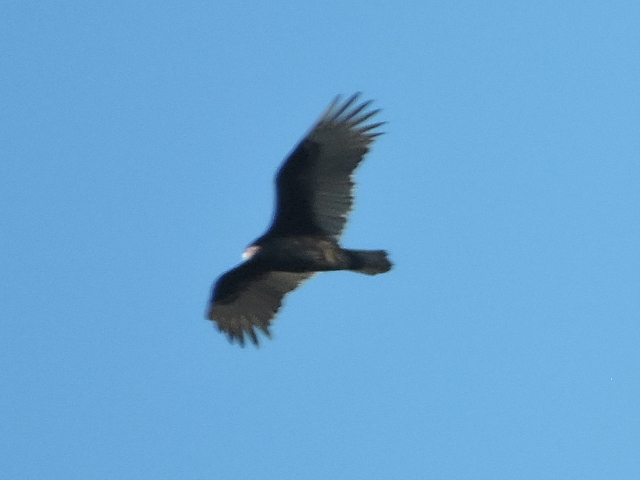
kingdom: Animalia
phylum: Chordata
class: Aves
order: Accipitriformes
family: Cathartidae
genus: Cathartes
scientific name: Cathartes aura
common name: Turkey vulture
